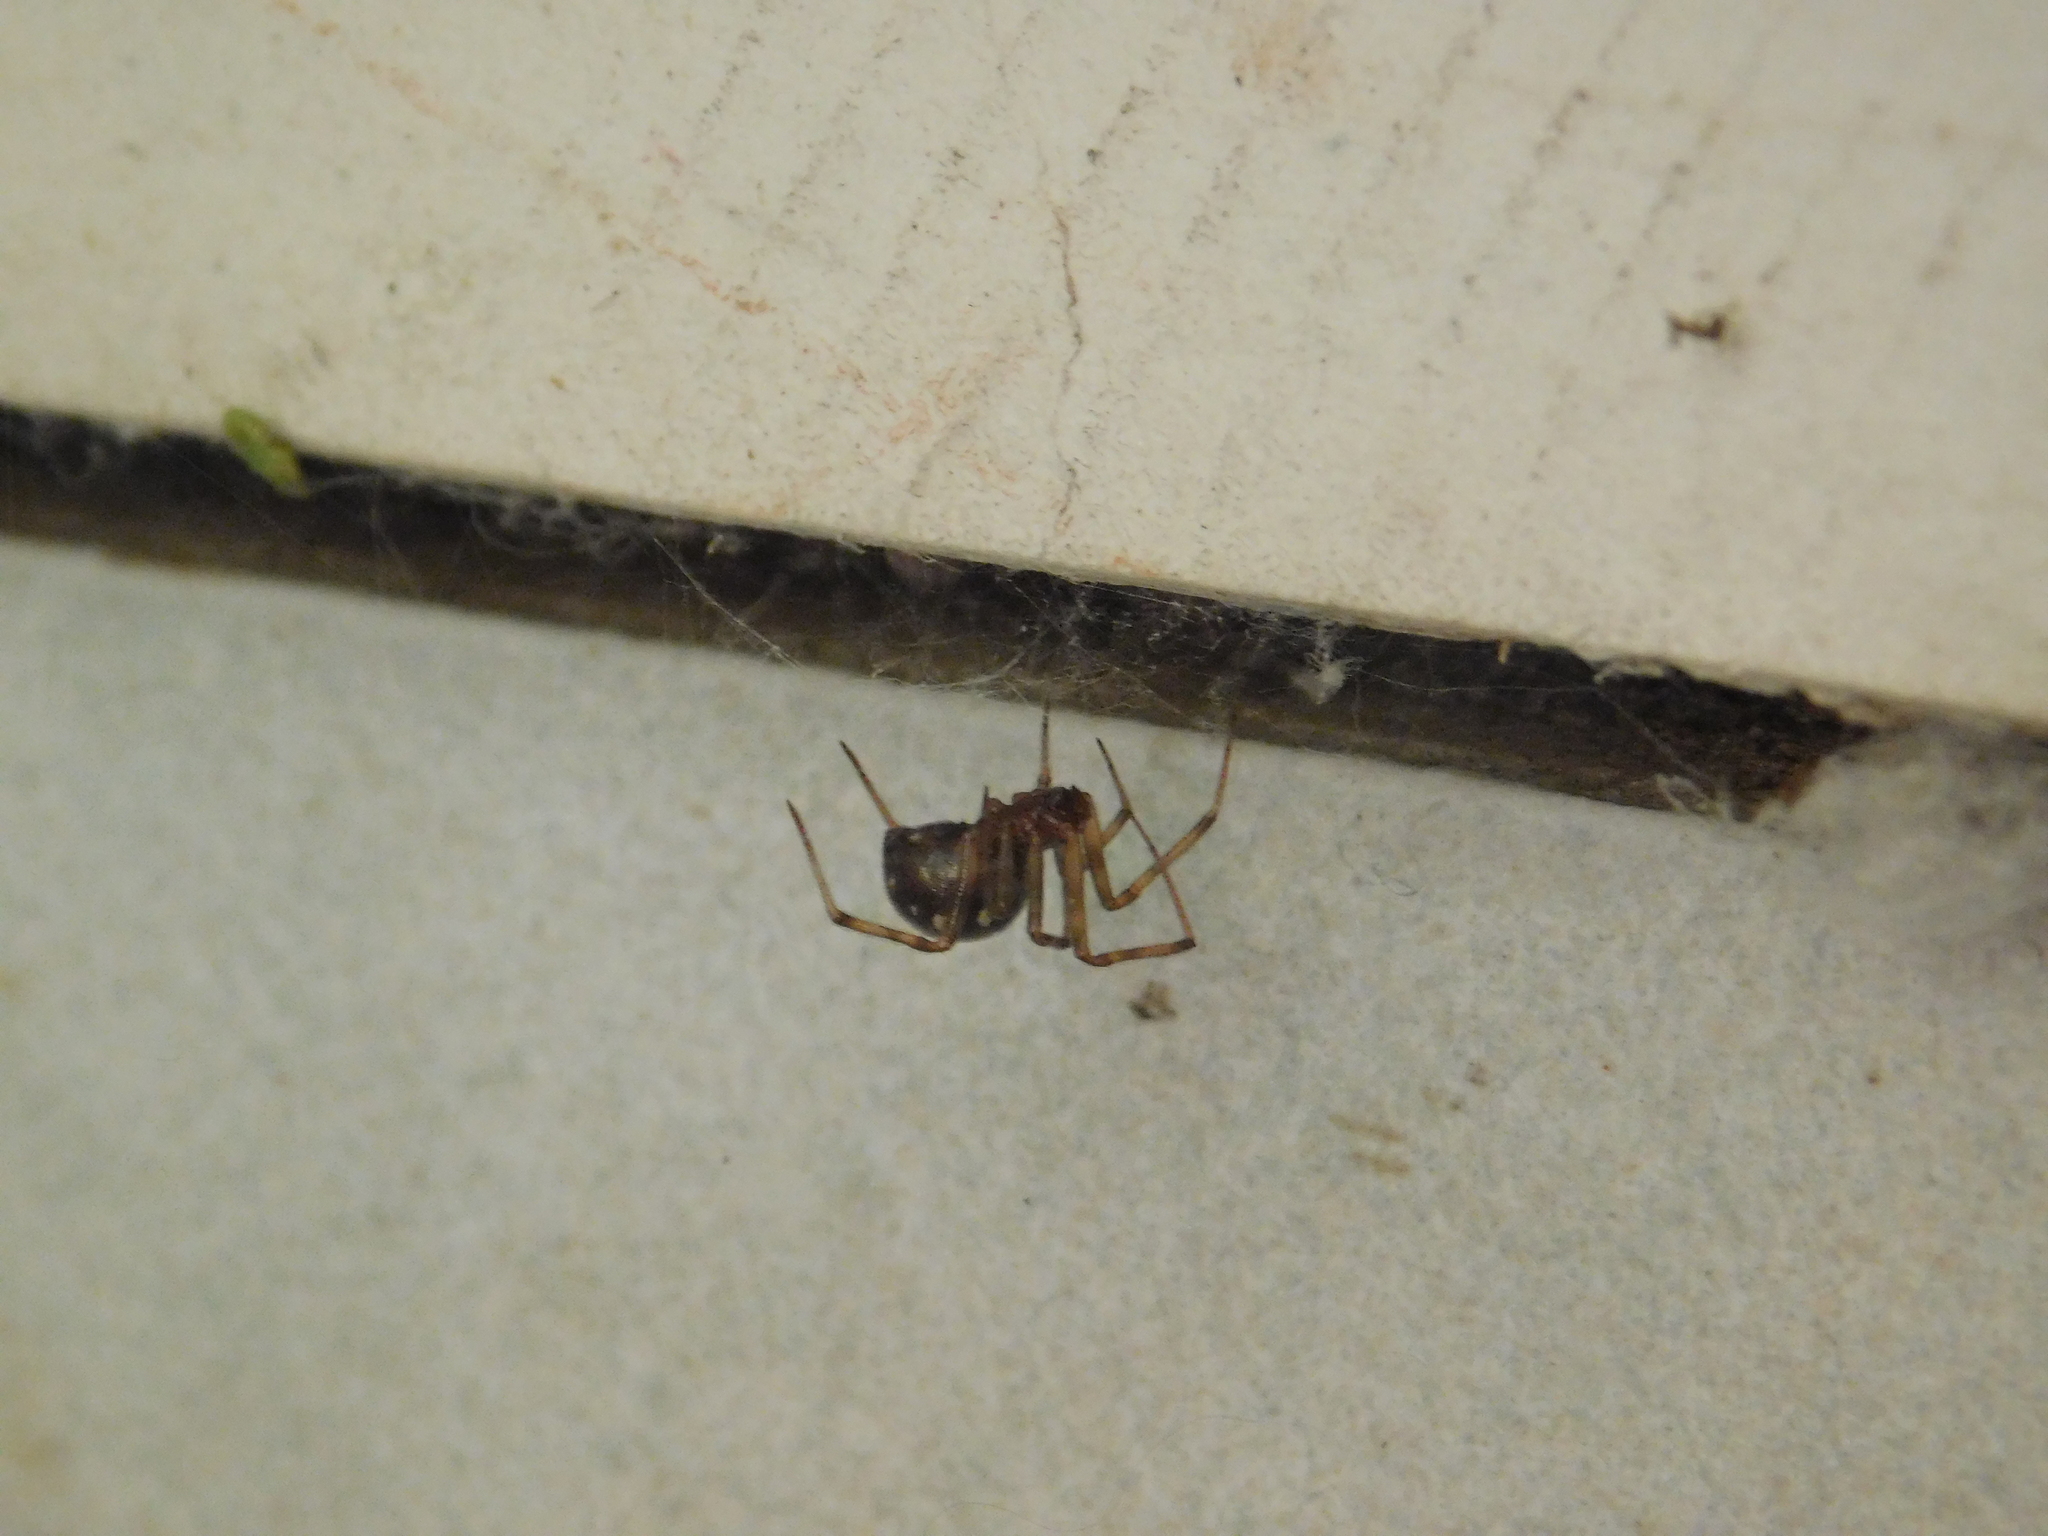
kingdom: Animalia
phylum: Arthropoda
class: Arachnida
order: Araneae
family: Theridiidae
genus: Steatoda
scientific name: Steatoda triangulosa
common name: Triangulate bud spider
